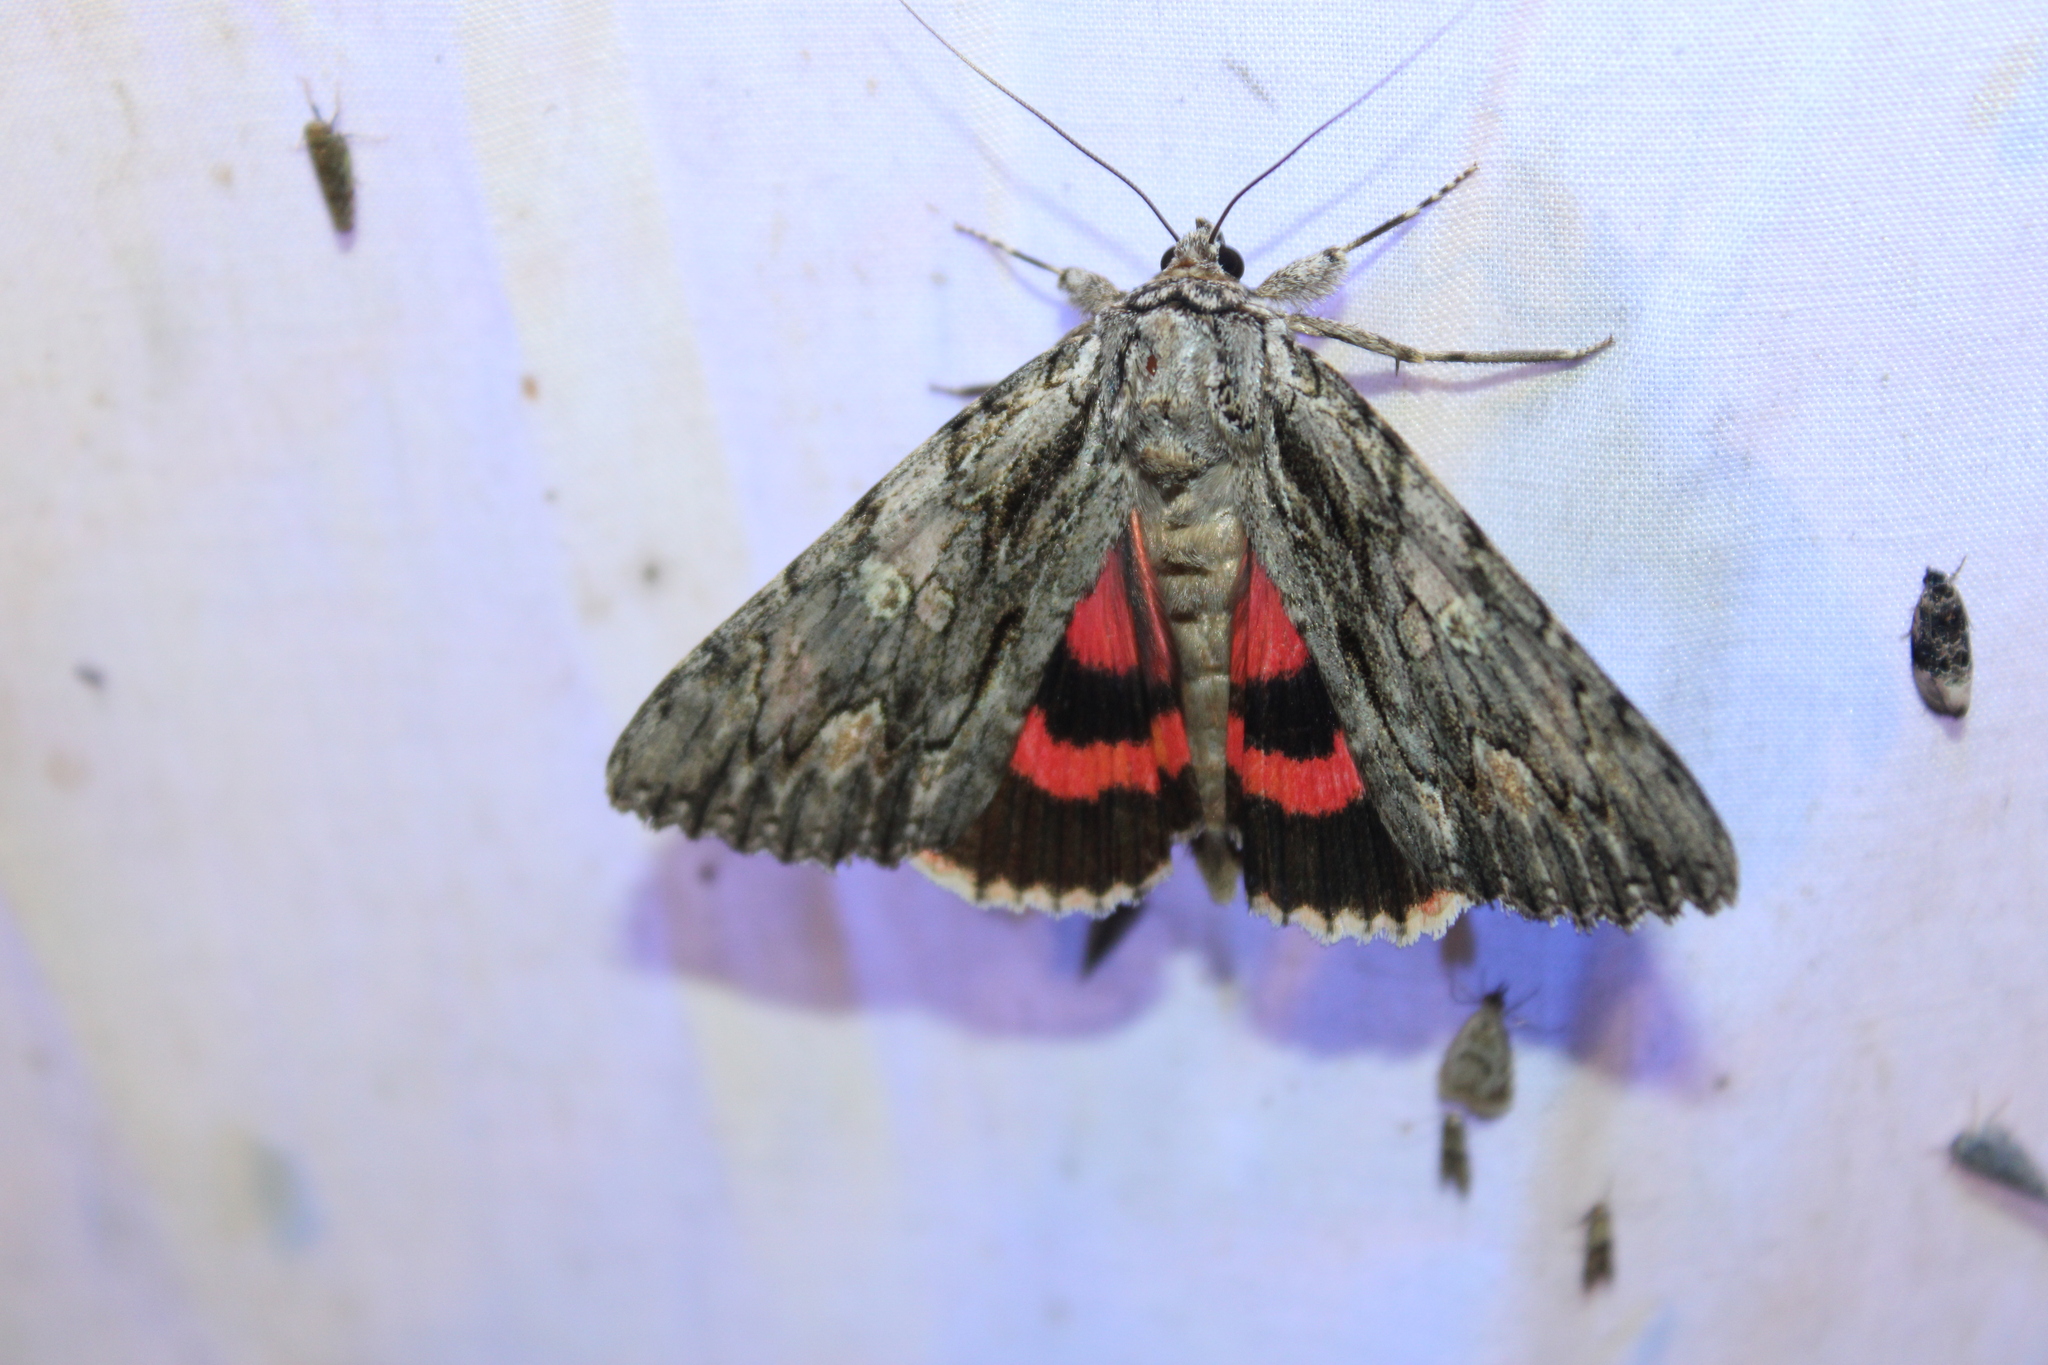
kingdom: Animalia
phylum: Arthropoda
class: Insecta
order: Lepidoptera
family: Erebidae
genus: Catocala
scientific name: Catocala coccinata
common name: Scarlet underwing
